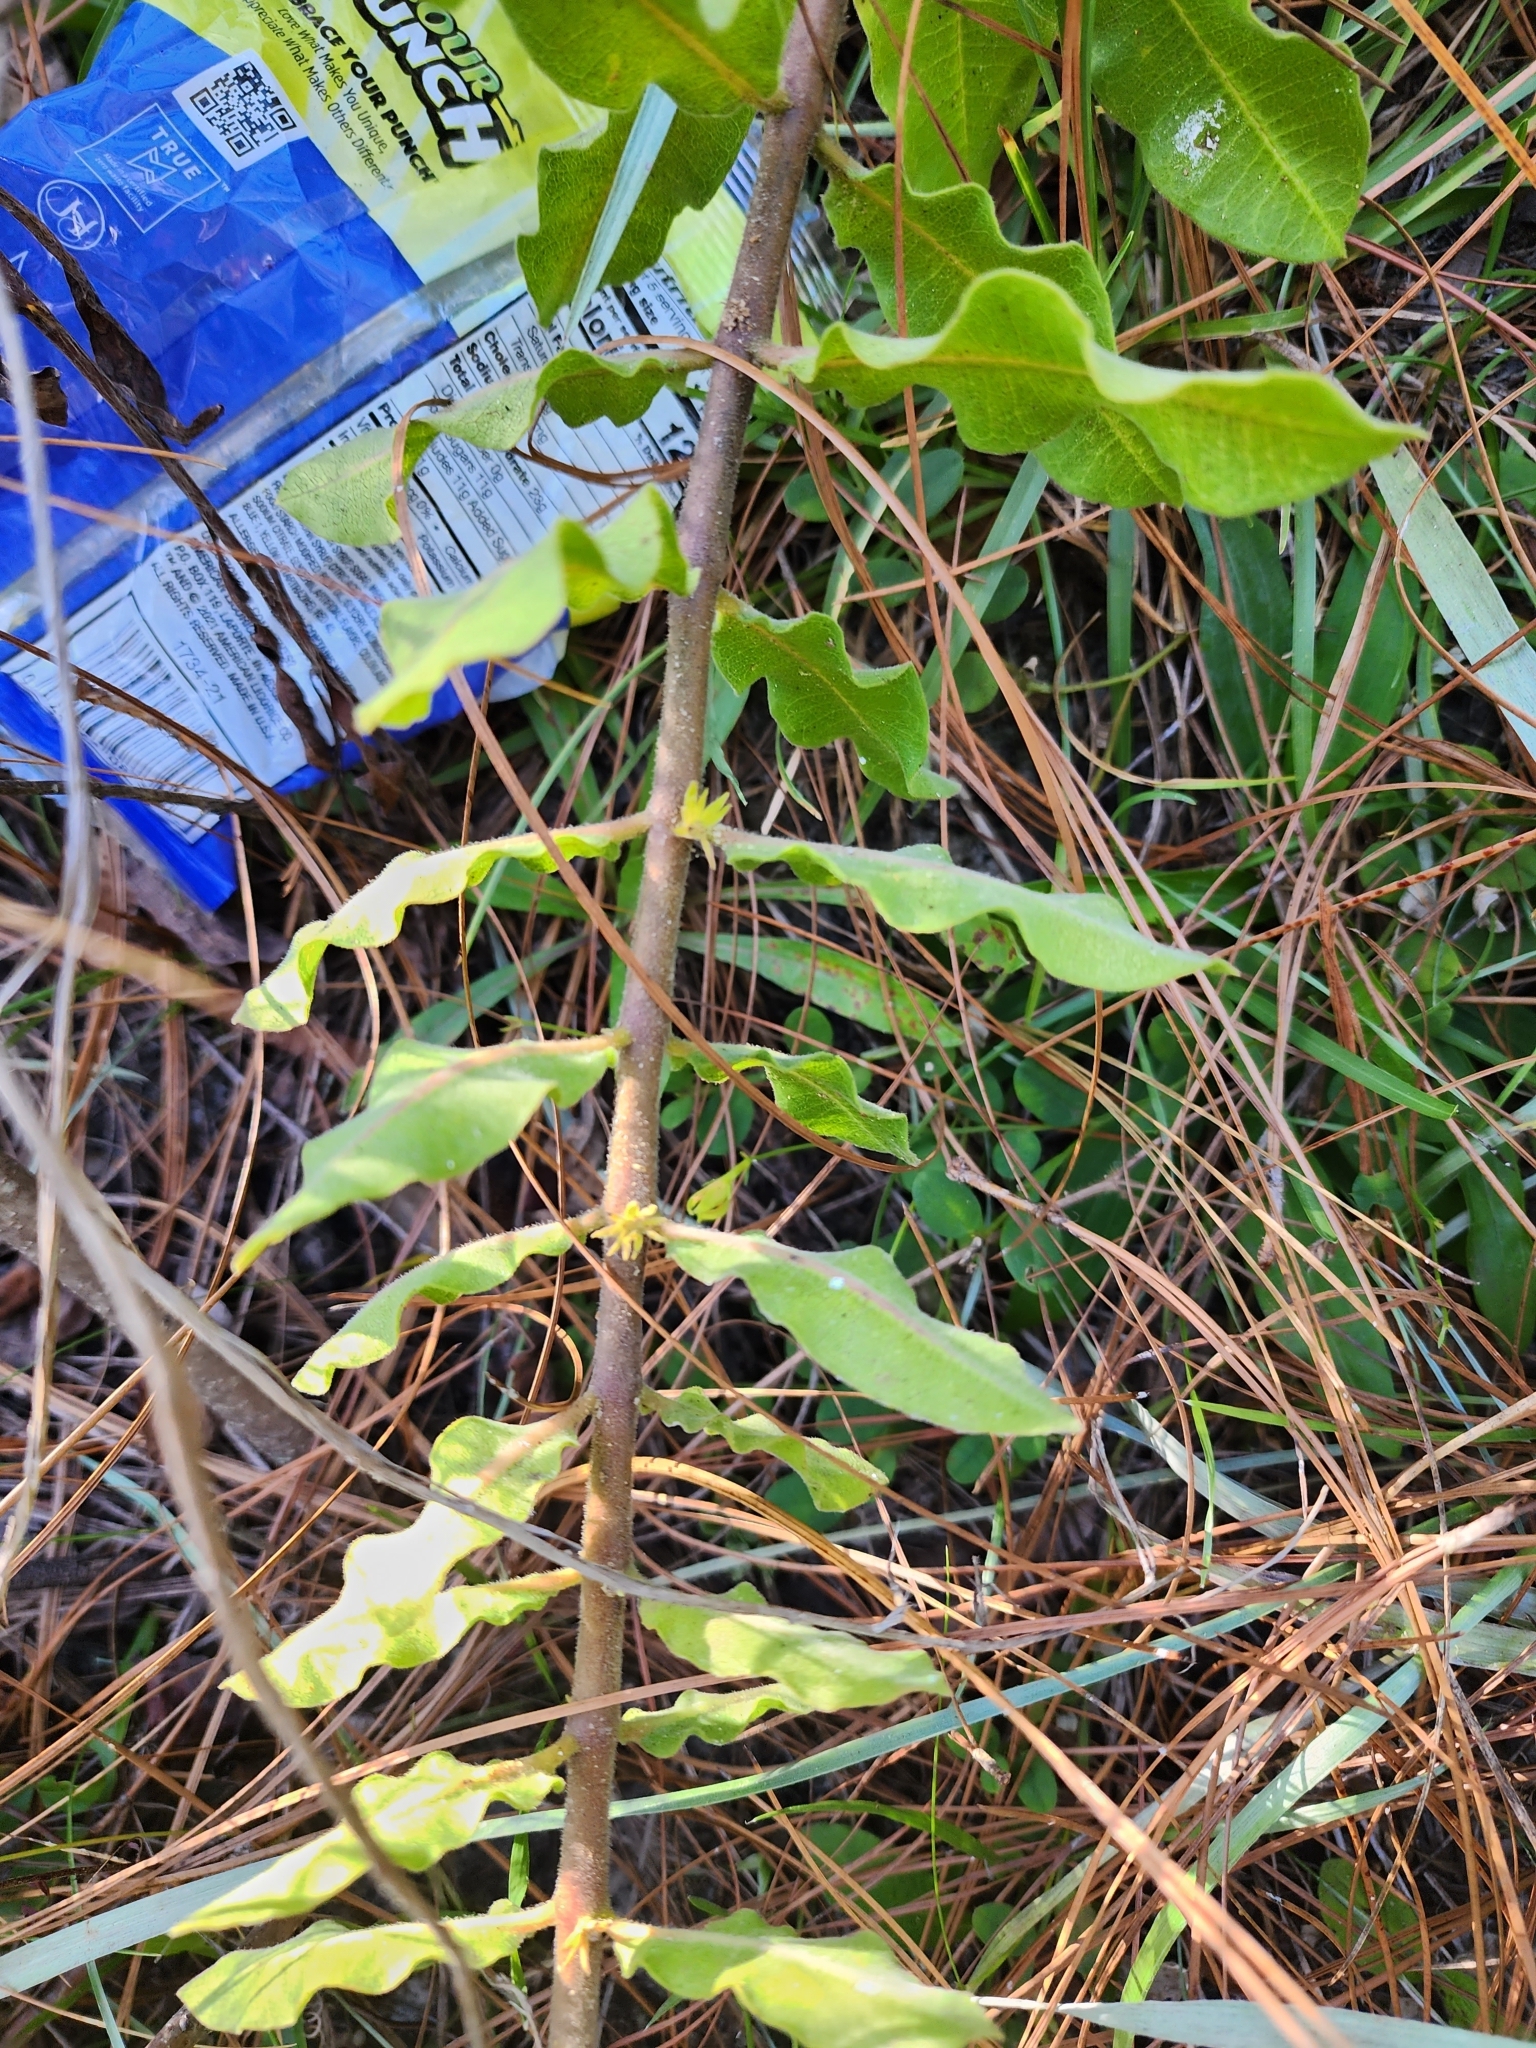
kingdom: Plantae
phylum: Tracheophyta
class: Magnoliopsida
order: Gentianales
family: Apocynaceae
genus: Asclepias
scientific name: Asclepias obovata
